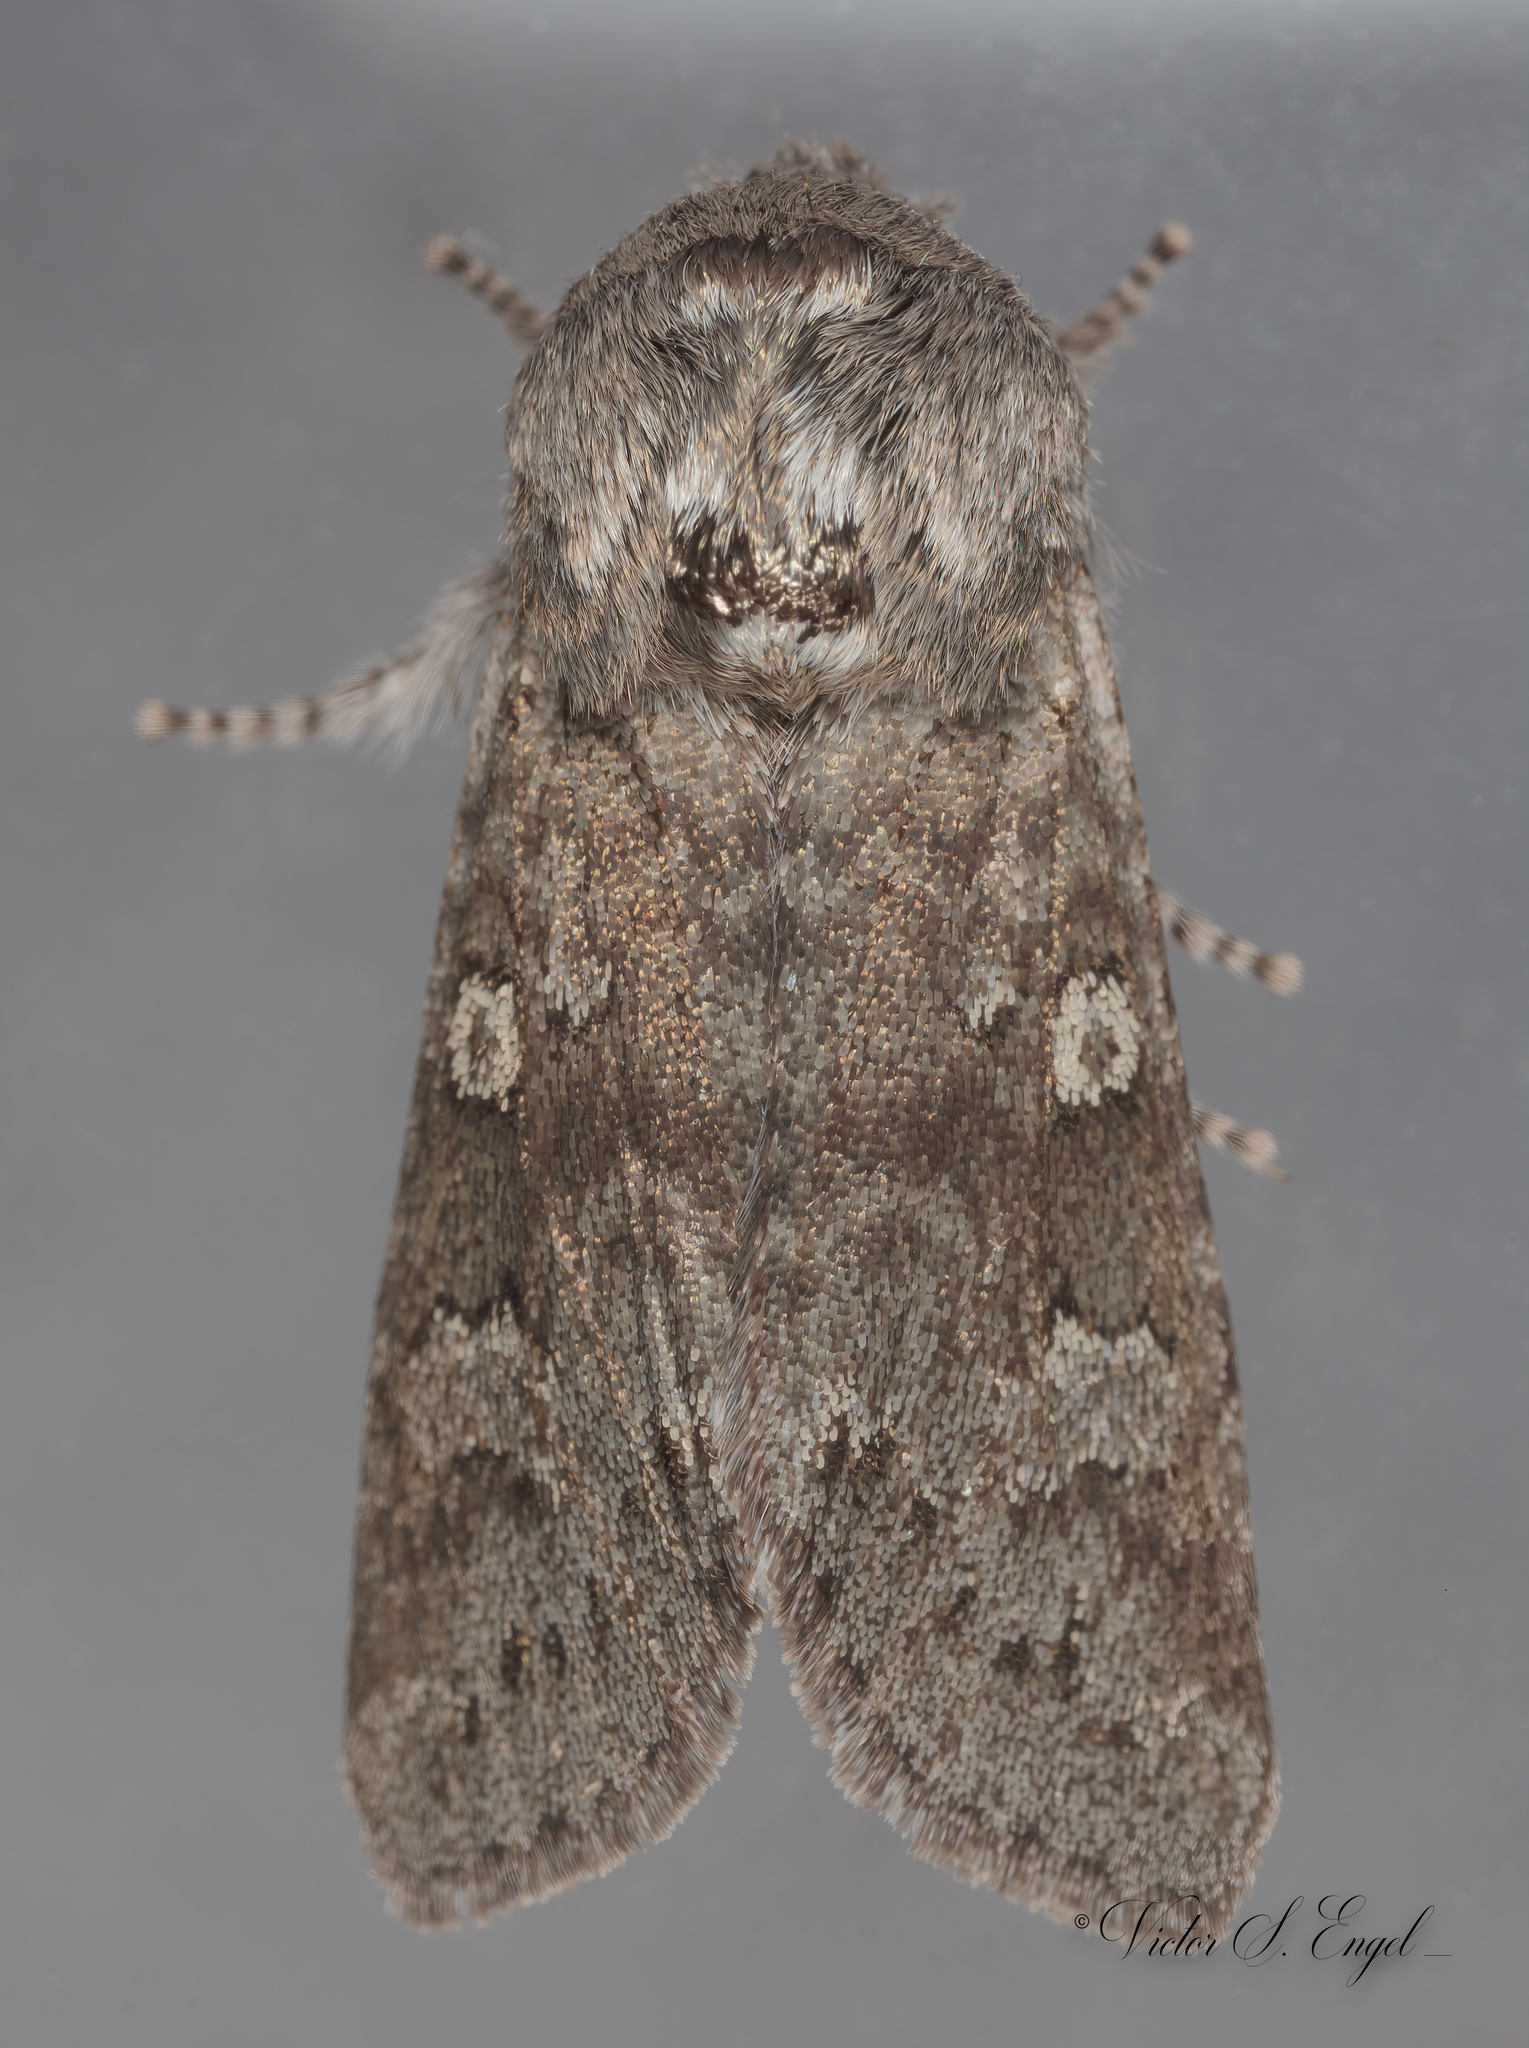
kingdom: Animalia
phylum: Arthropoda
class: Insecta
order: Lepidoptera
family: Noctuidae
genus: Psaphida
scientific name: Psaphida rolandi
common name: Roland's sallow
